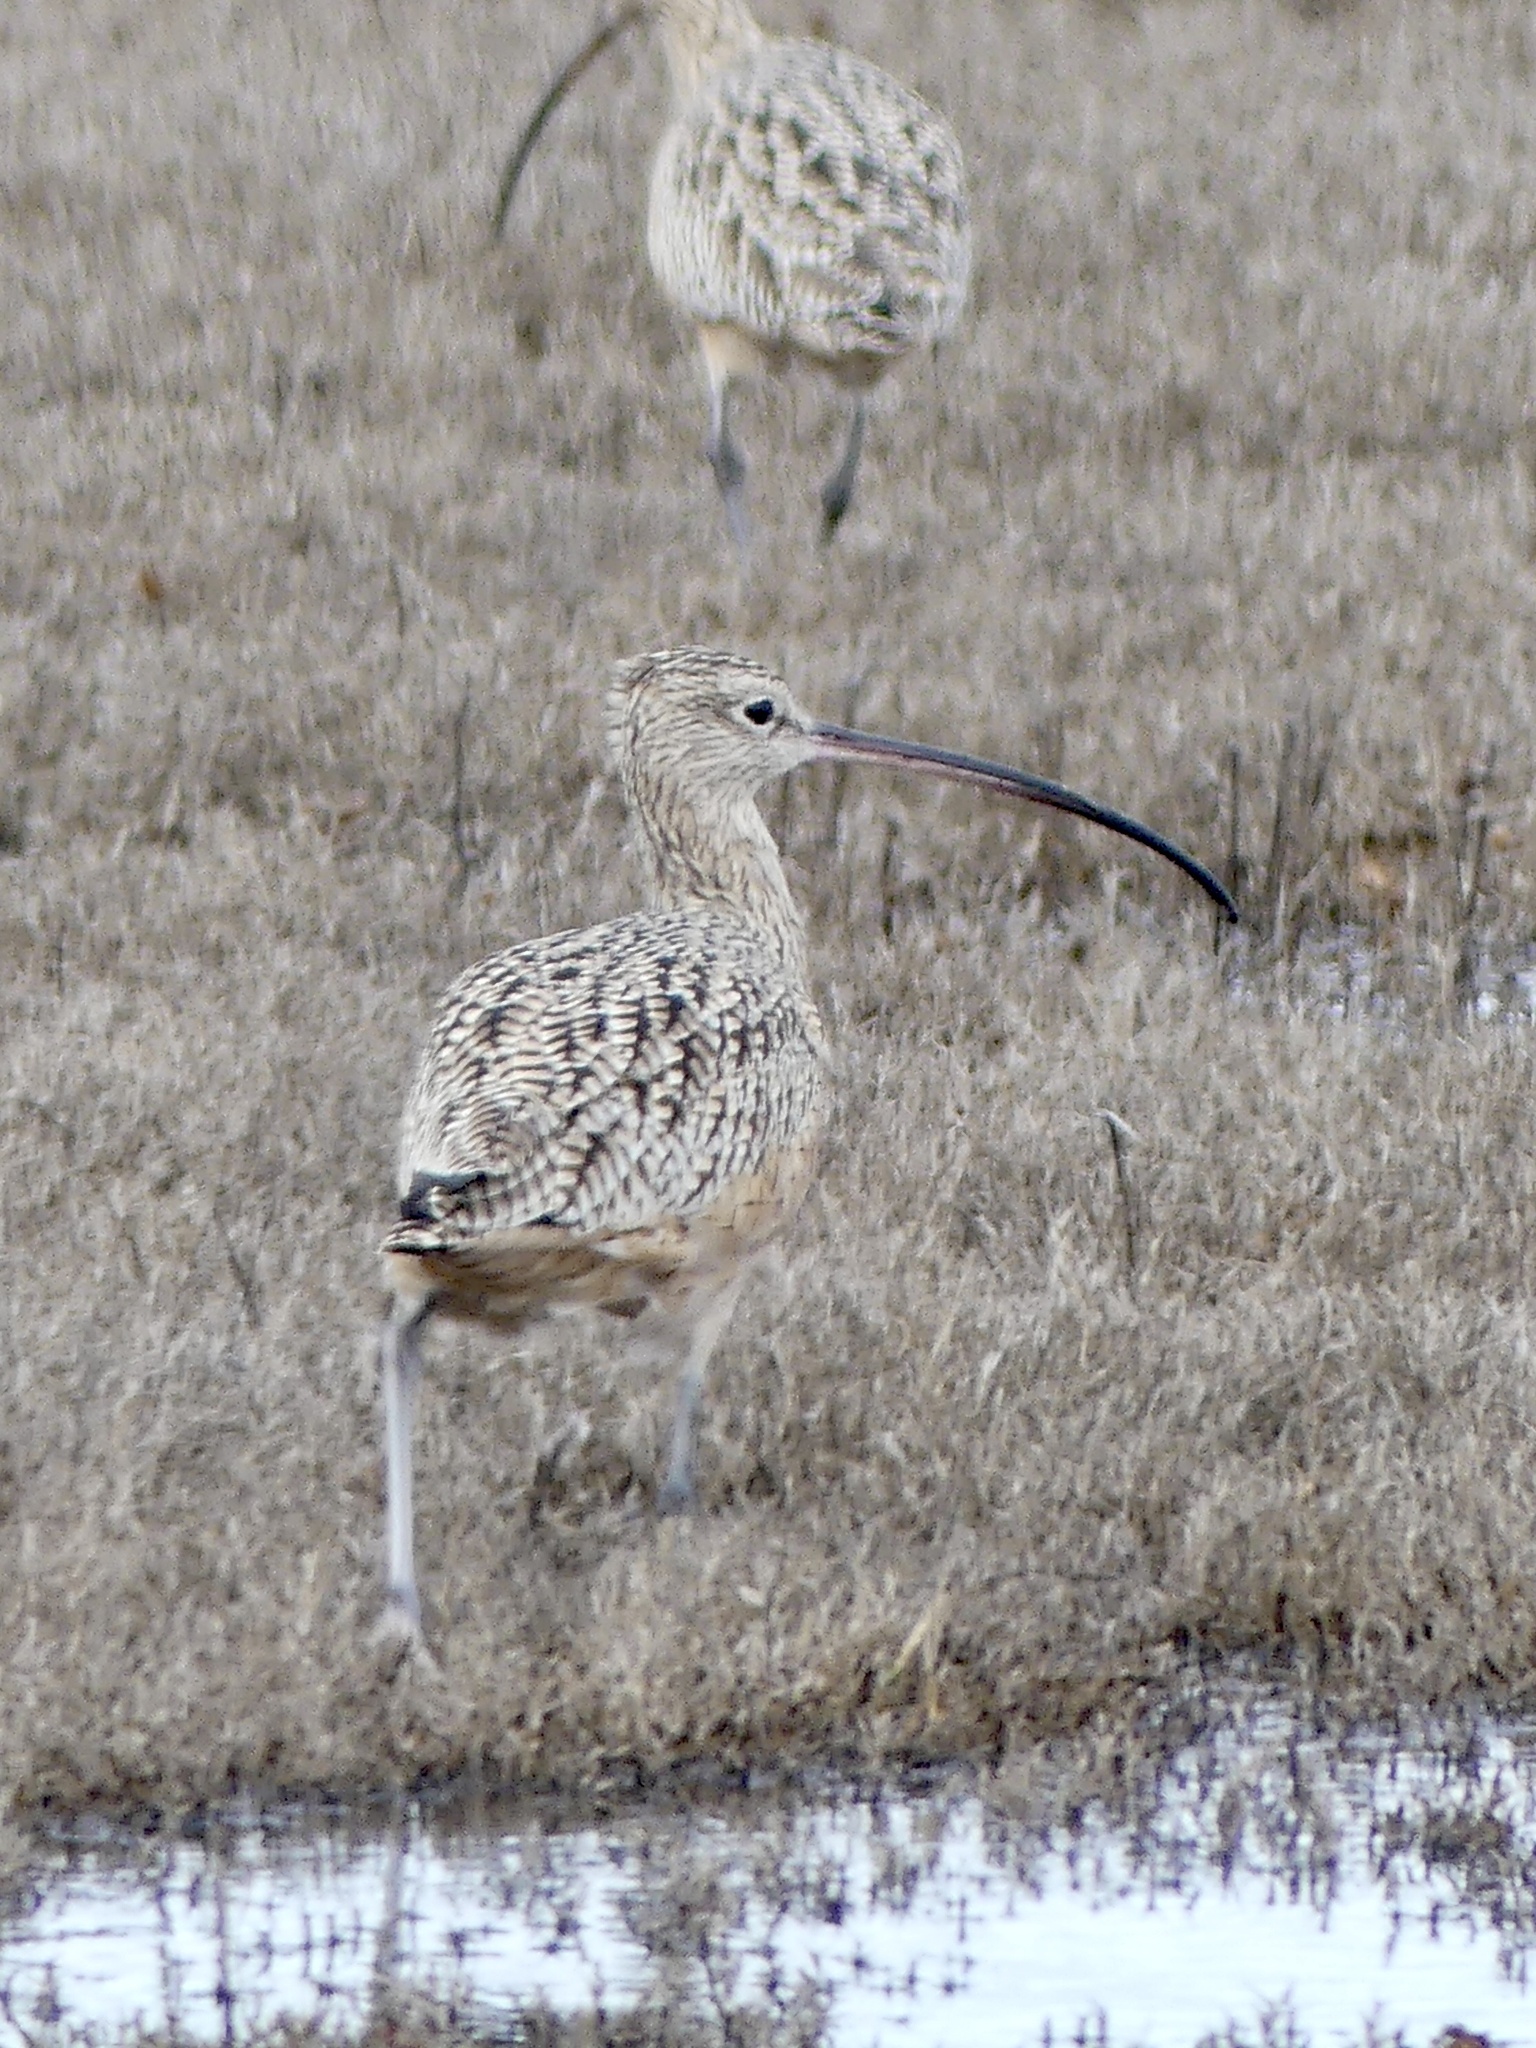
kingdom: Animalia
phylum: Chordata
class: Aves
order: Charadriiformes
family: Scolopacidae
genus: Numenius
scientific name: Numenius americanus
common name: Long-billed curlew
